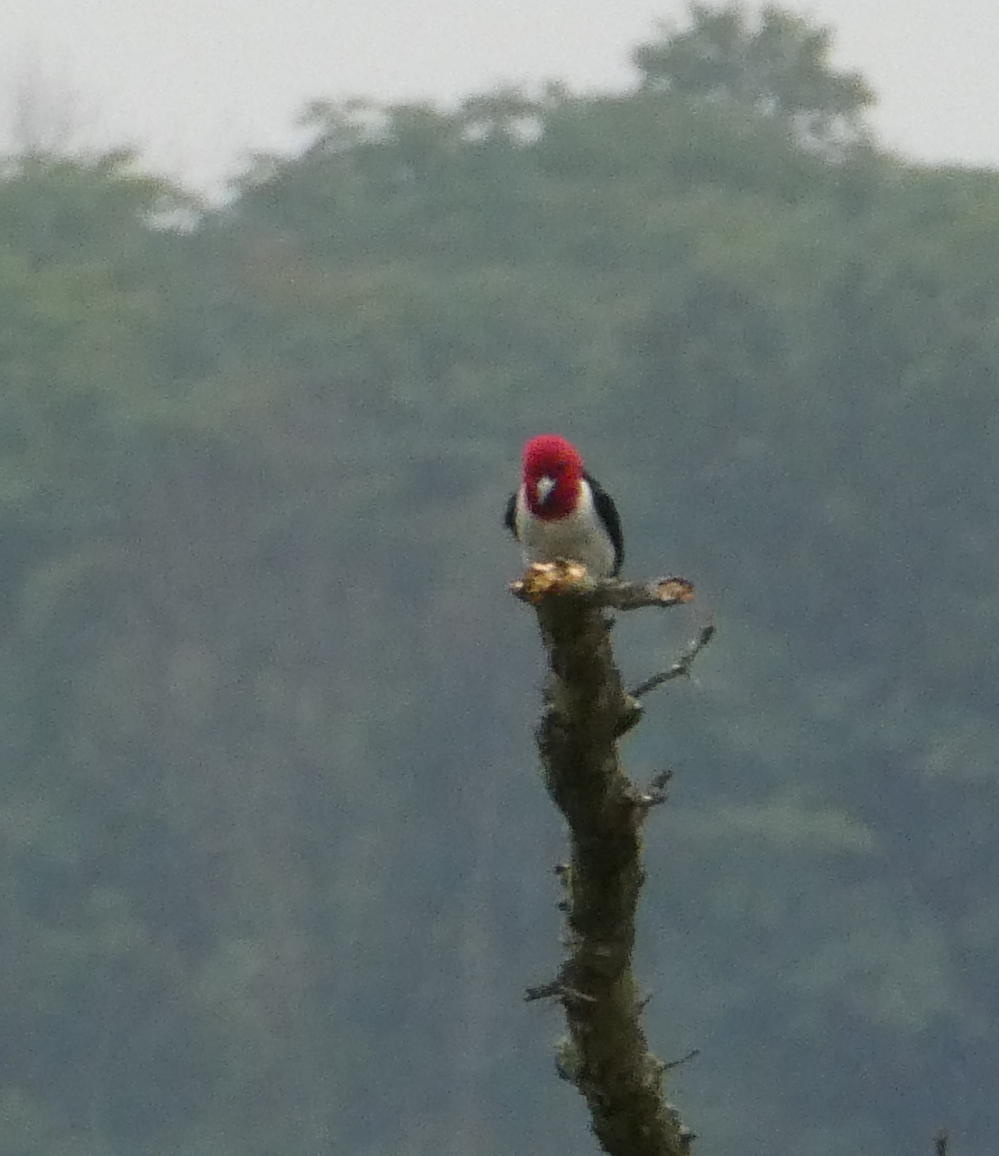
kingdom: Animalia
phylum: Chordata
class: Aves
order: Piciformes
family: Picidae
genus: Melanerpes
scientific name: Melanerpes erythrocephalus
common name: Red-headed woodpecker
